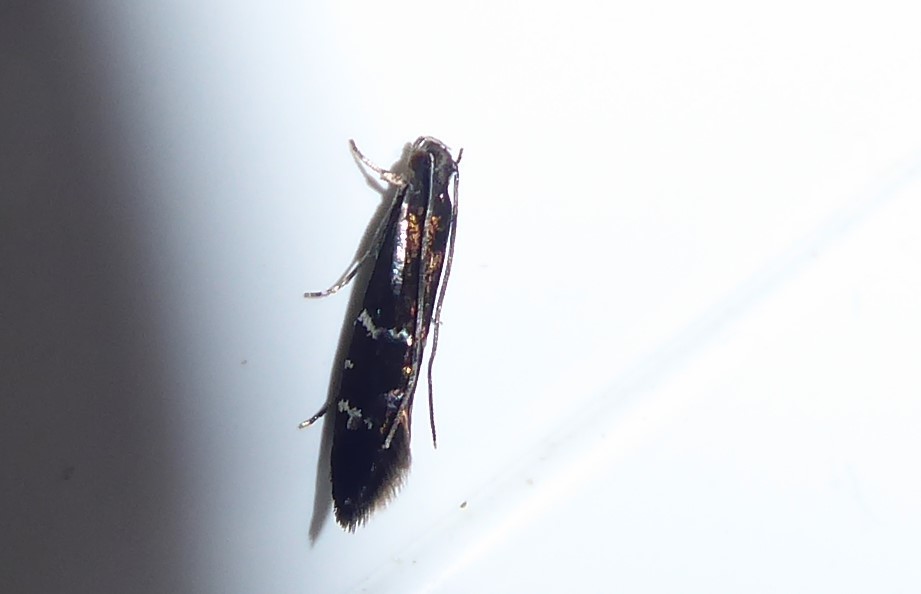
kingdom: Animalia
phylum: Arthropoda
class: Insecta
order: Lepidoptera
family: Tineidae
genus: Astrogenes
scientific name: Astrogenes insignita
